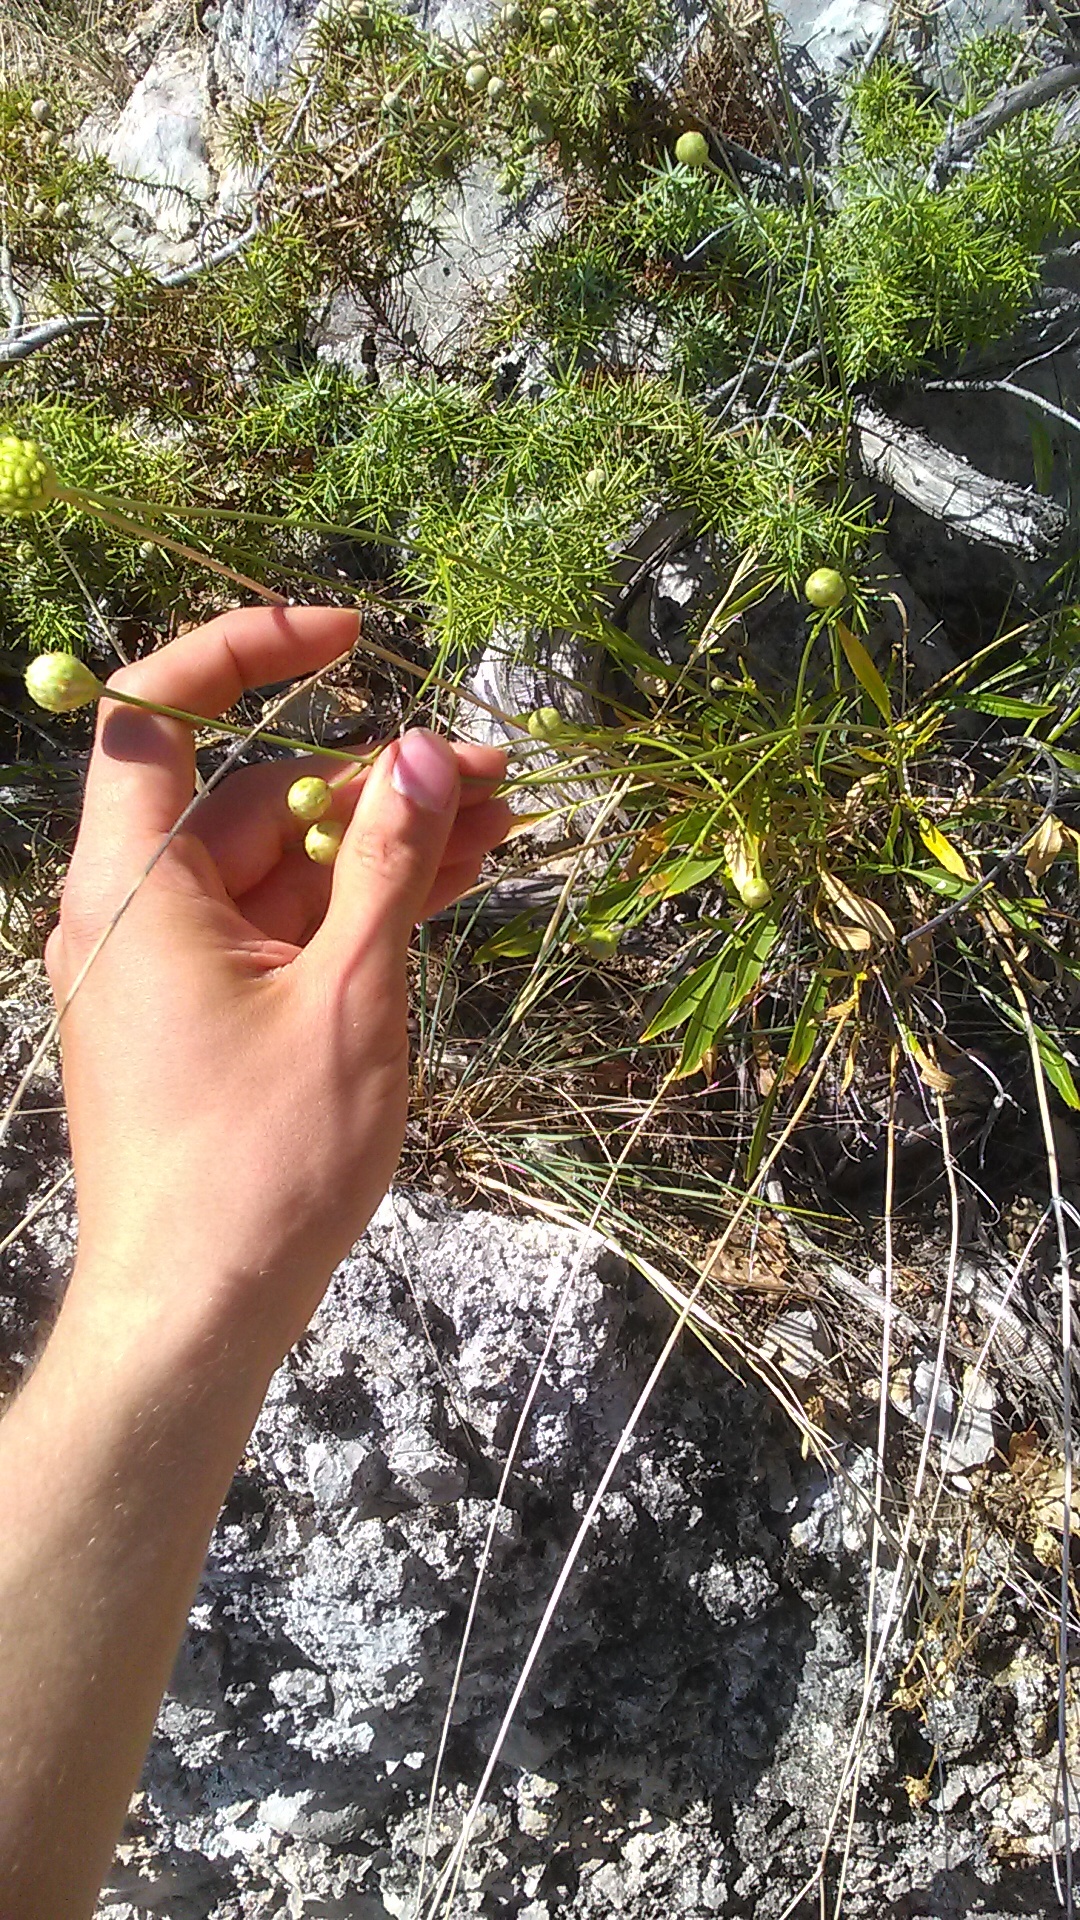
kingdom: Plantae
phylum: Tracheophyta
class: Magnoliopsida
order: Dipsacales
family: Caprifoliaceae
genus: Cephalaria
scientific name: Cephalaria coriacea
